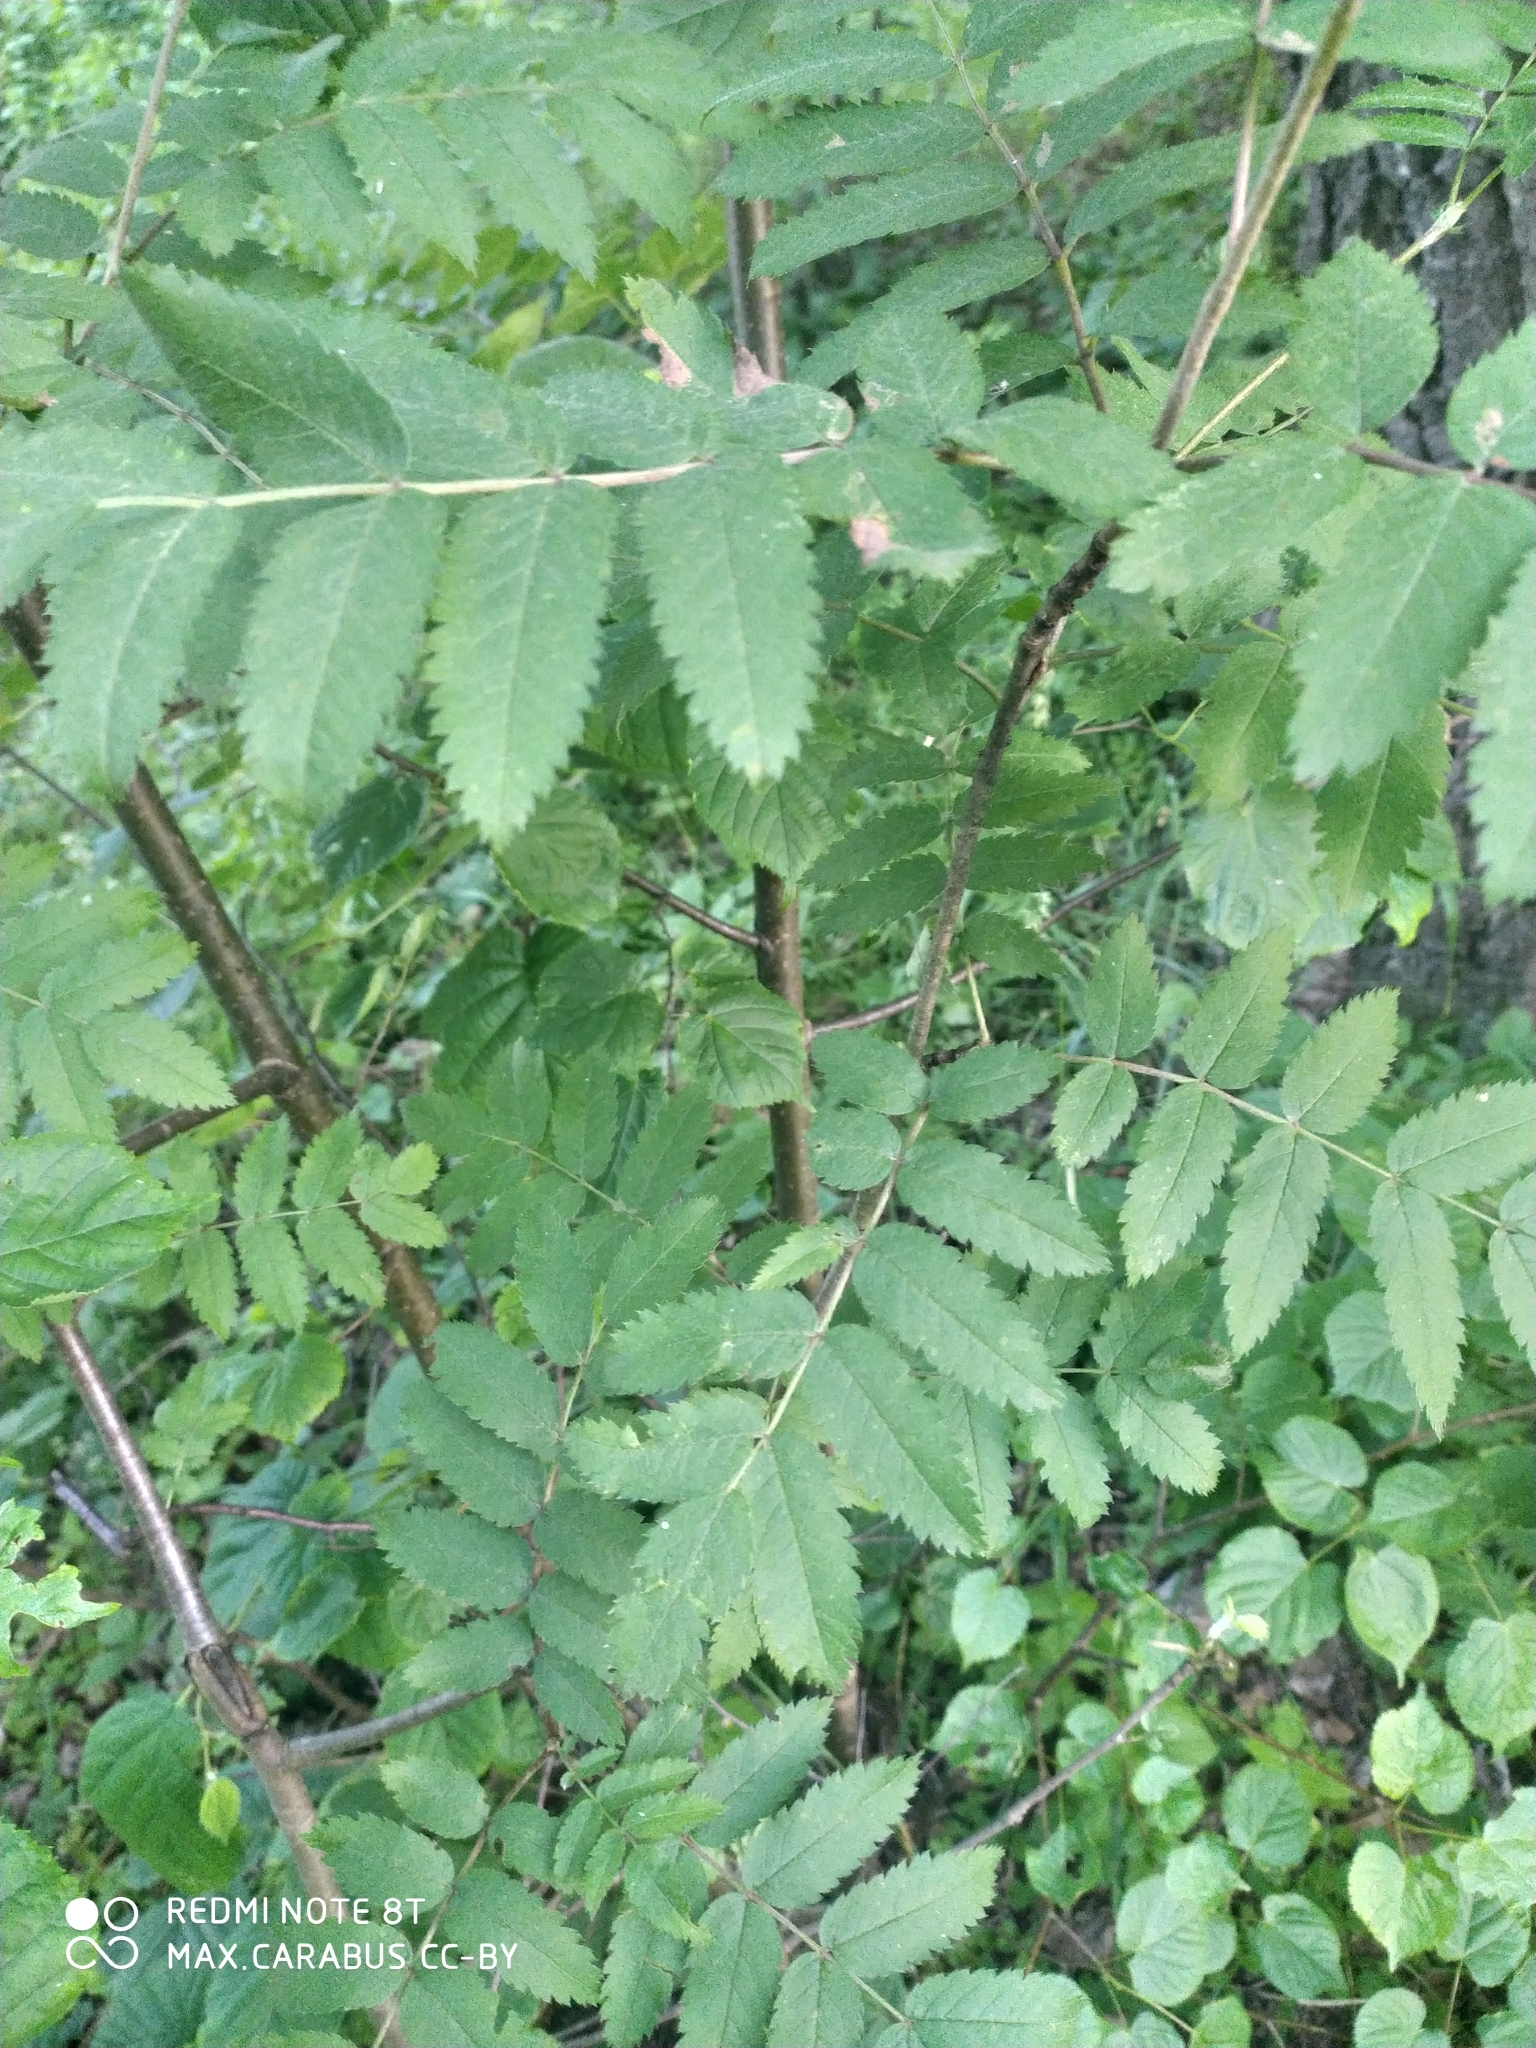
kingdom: Plantae
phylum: Tracheophyta
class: Magnoliopsida
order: Rosales
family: Rosaceae
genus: Sorbus
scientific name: Sorbus aucuparia
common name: Rowan
